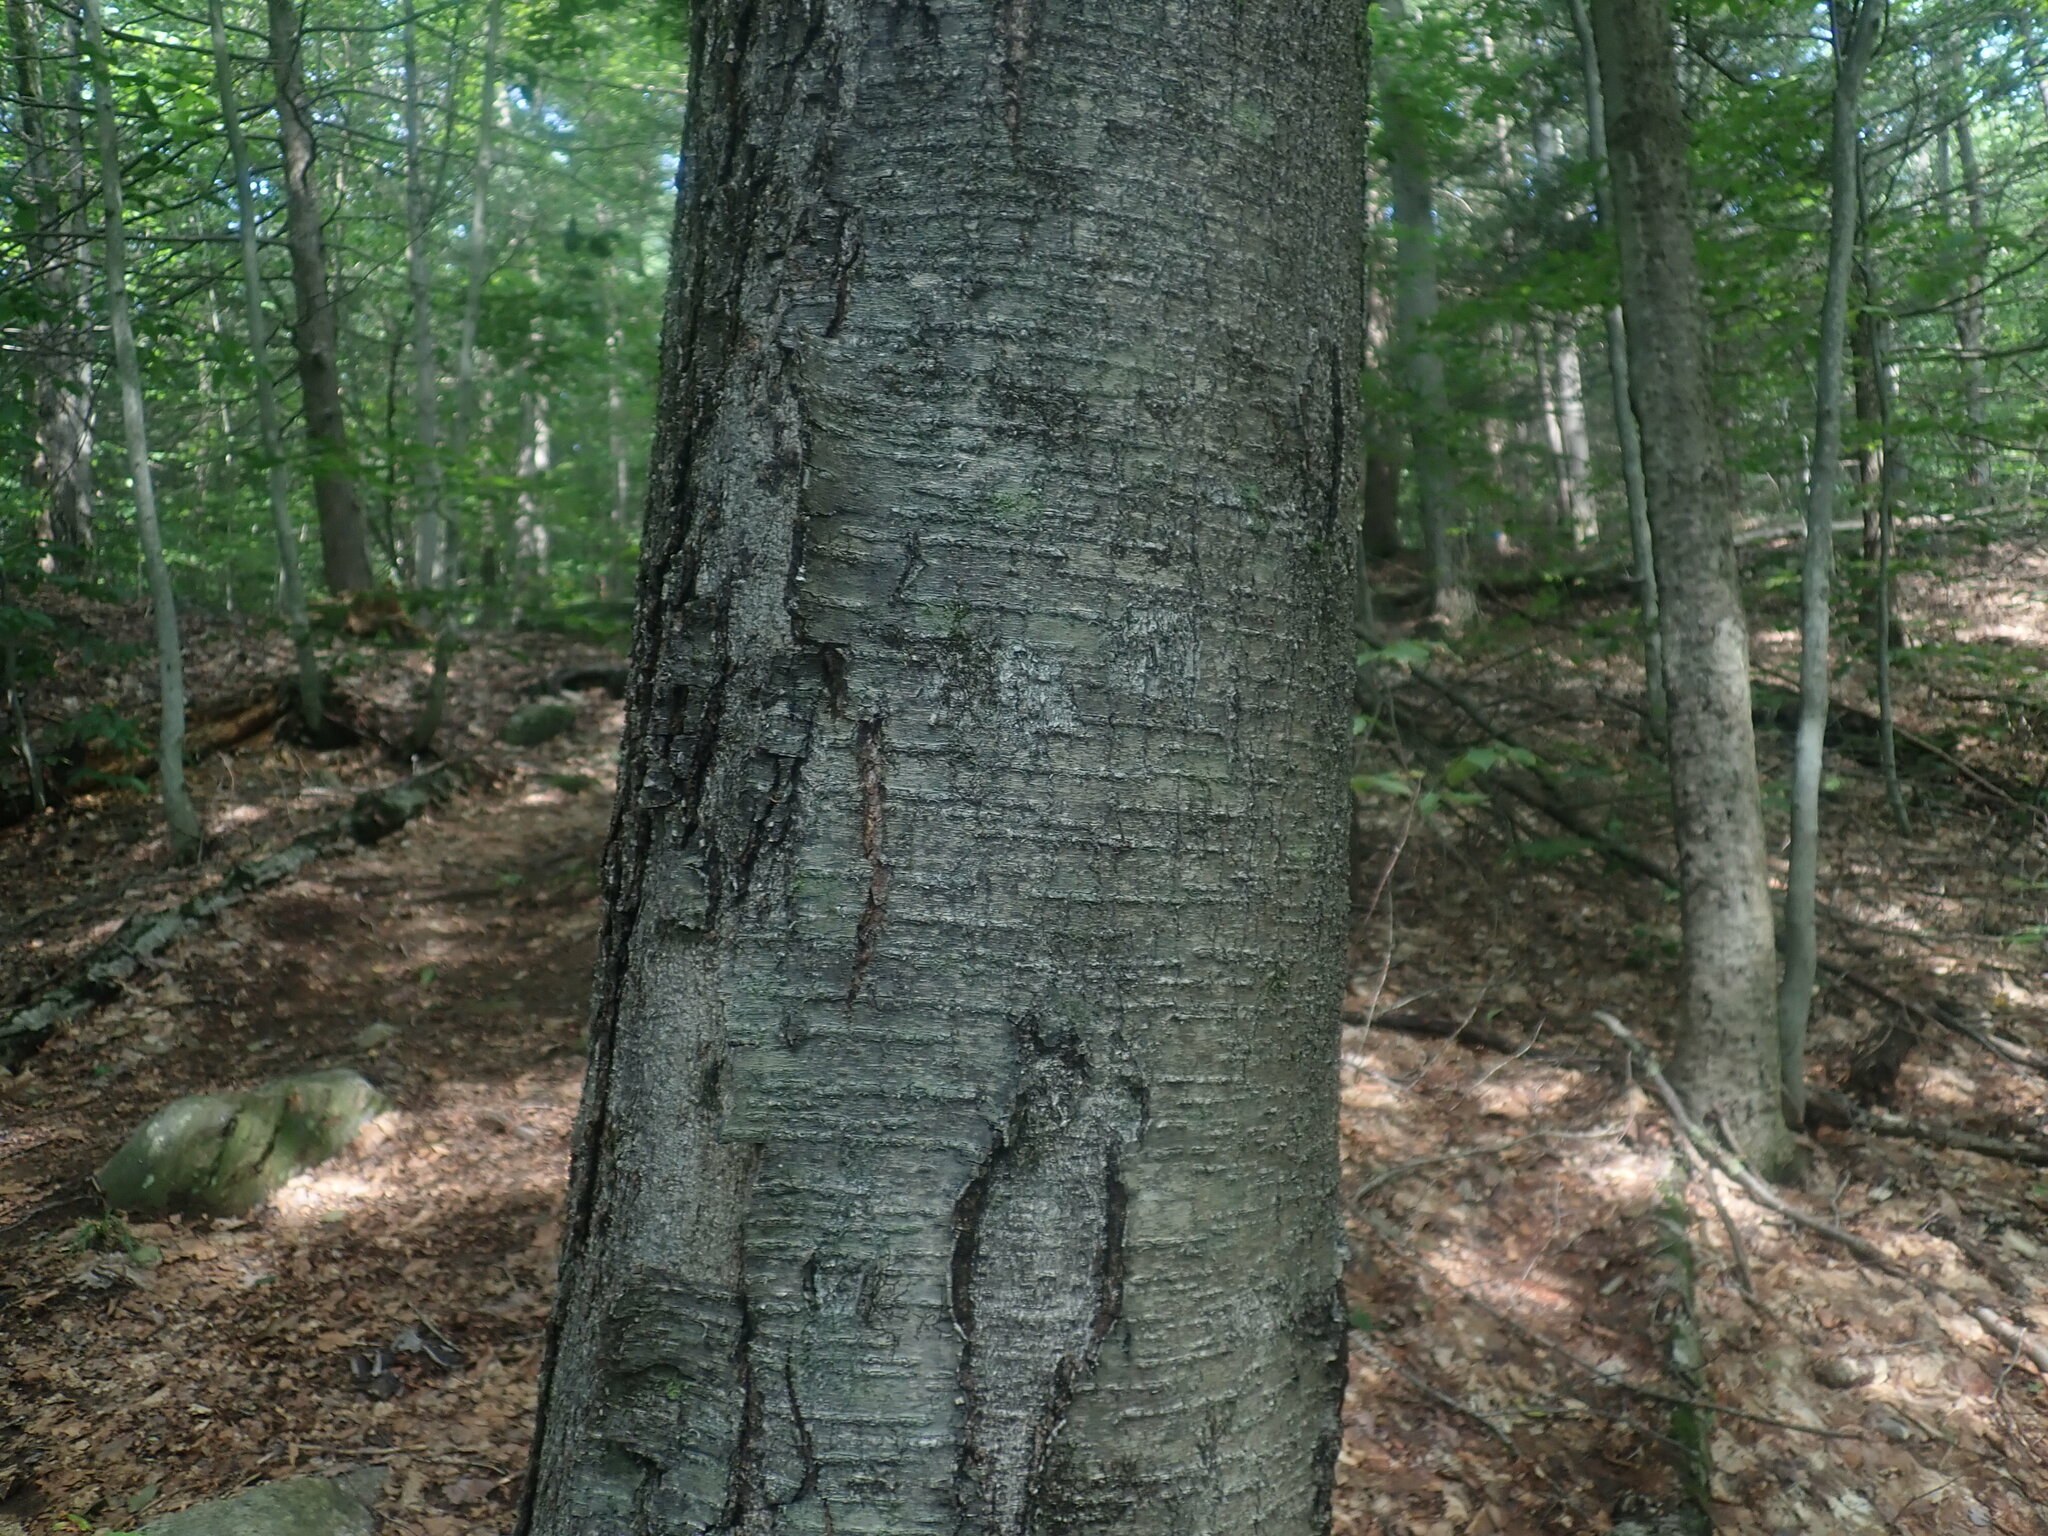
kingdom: Plantae
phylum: Tracheophyta
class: Magnoliopsida
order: Fagales
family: Betulaceae
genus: Betula
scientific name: Betula lenta
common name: Black birch
